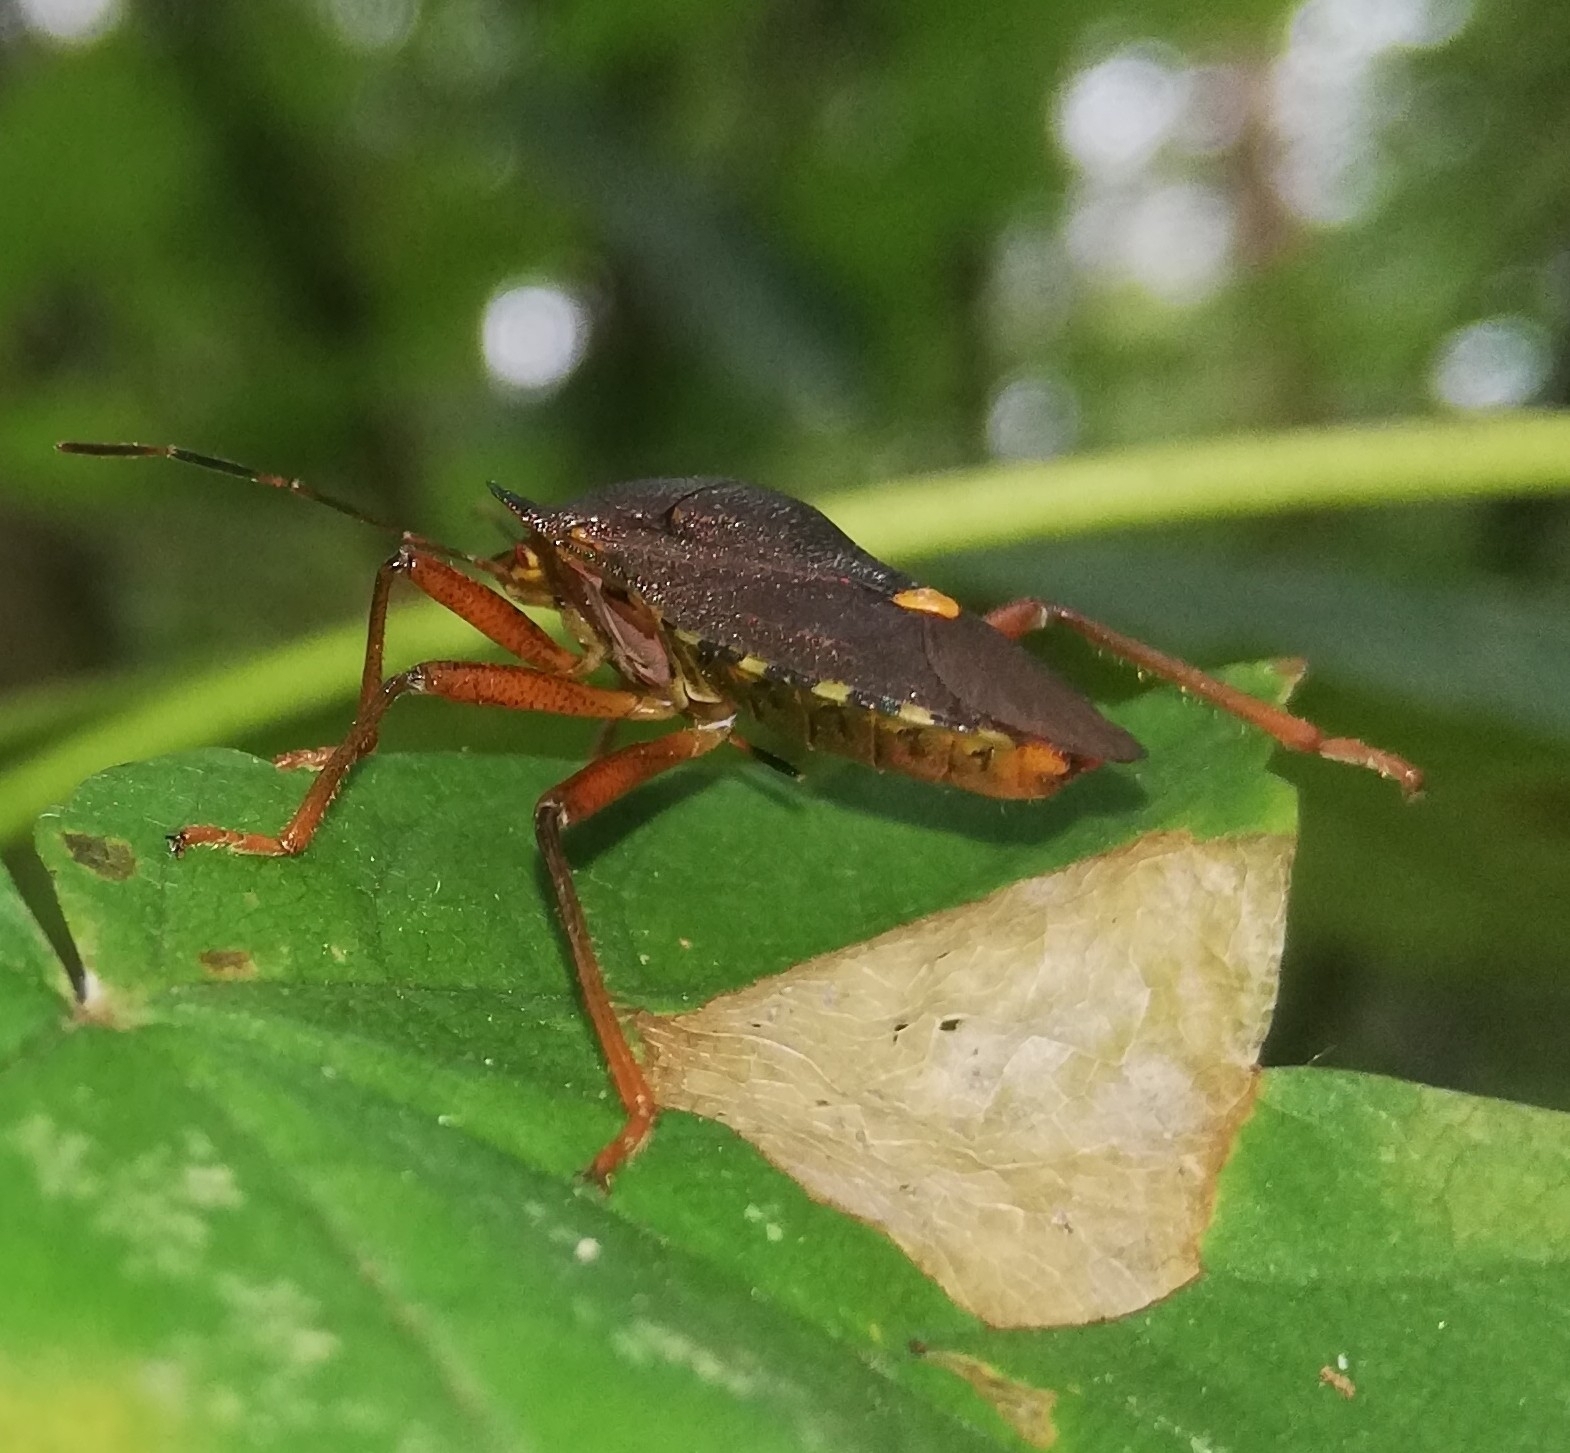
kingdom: Animalia
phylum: Arthropoda
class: Insecta
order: Hemiptera
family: Pentatomidae
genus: Pentatoma
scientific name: Pentatoma rufipes
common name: Forest bug
